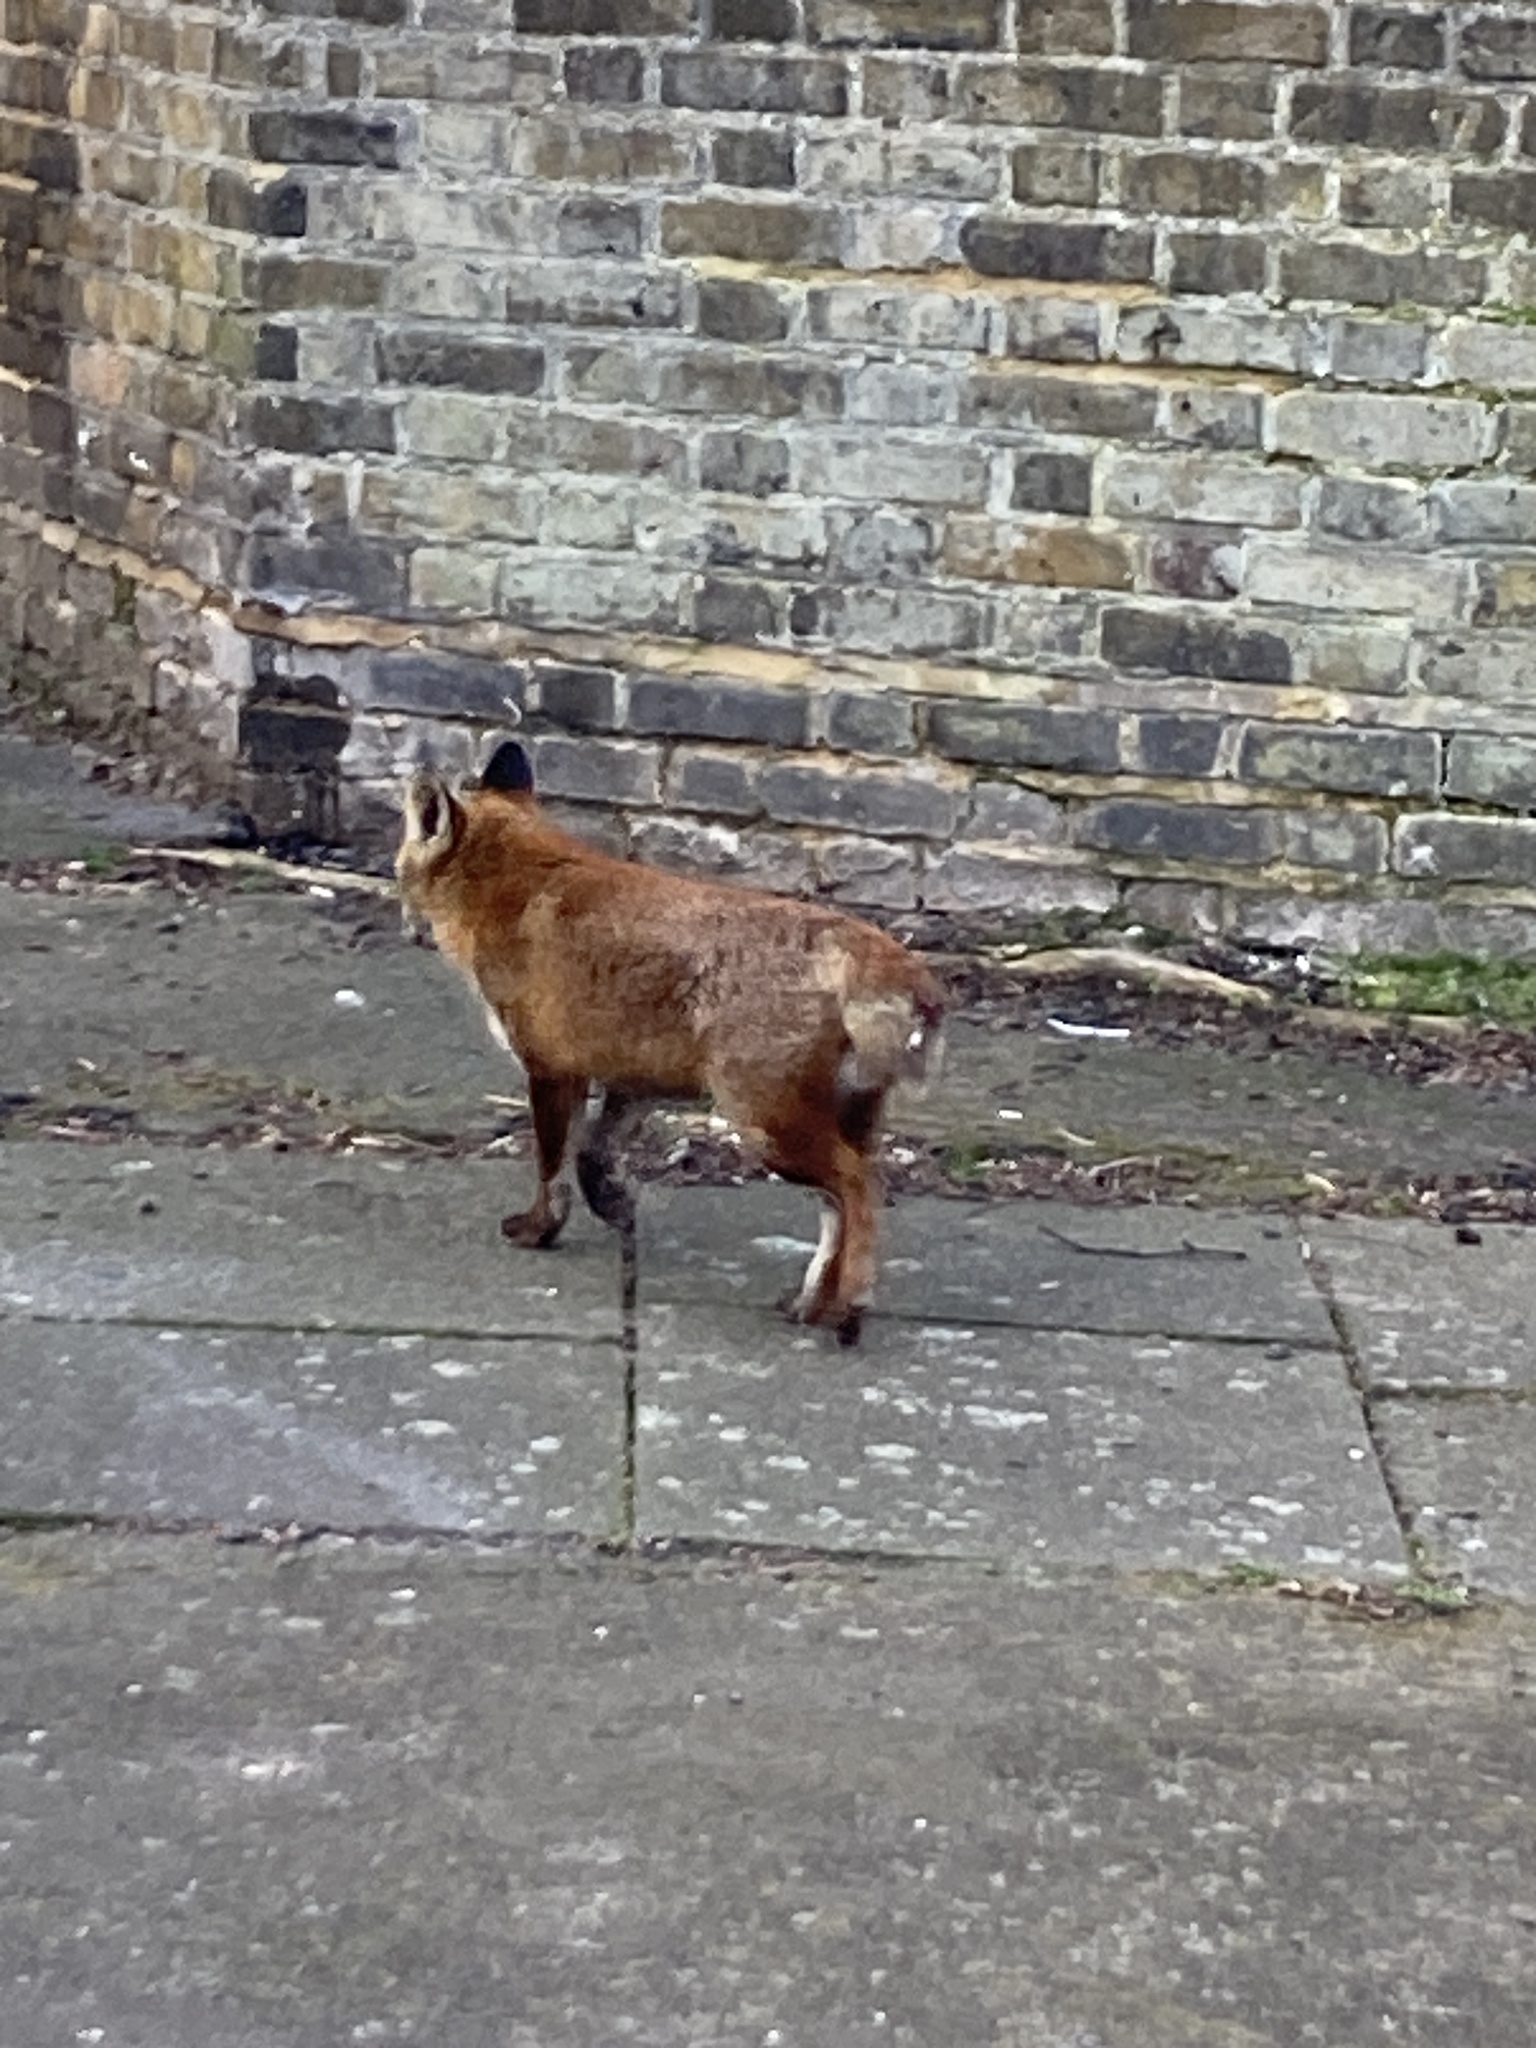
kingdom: Animalia
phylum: Chordata
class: Mammalia
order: Carnivora
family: Canidae
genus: Vulpes
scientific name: Vulpes vulpes
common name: Red fox
